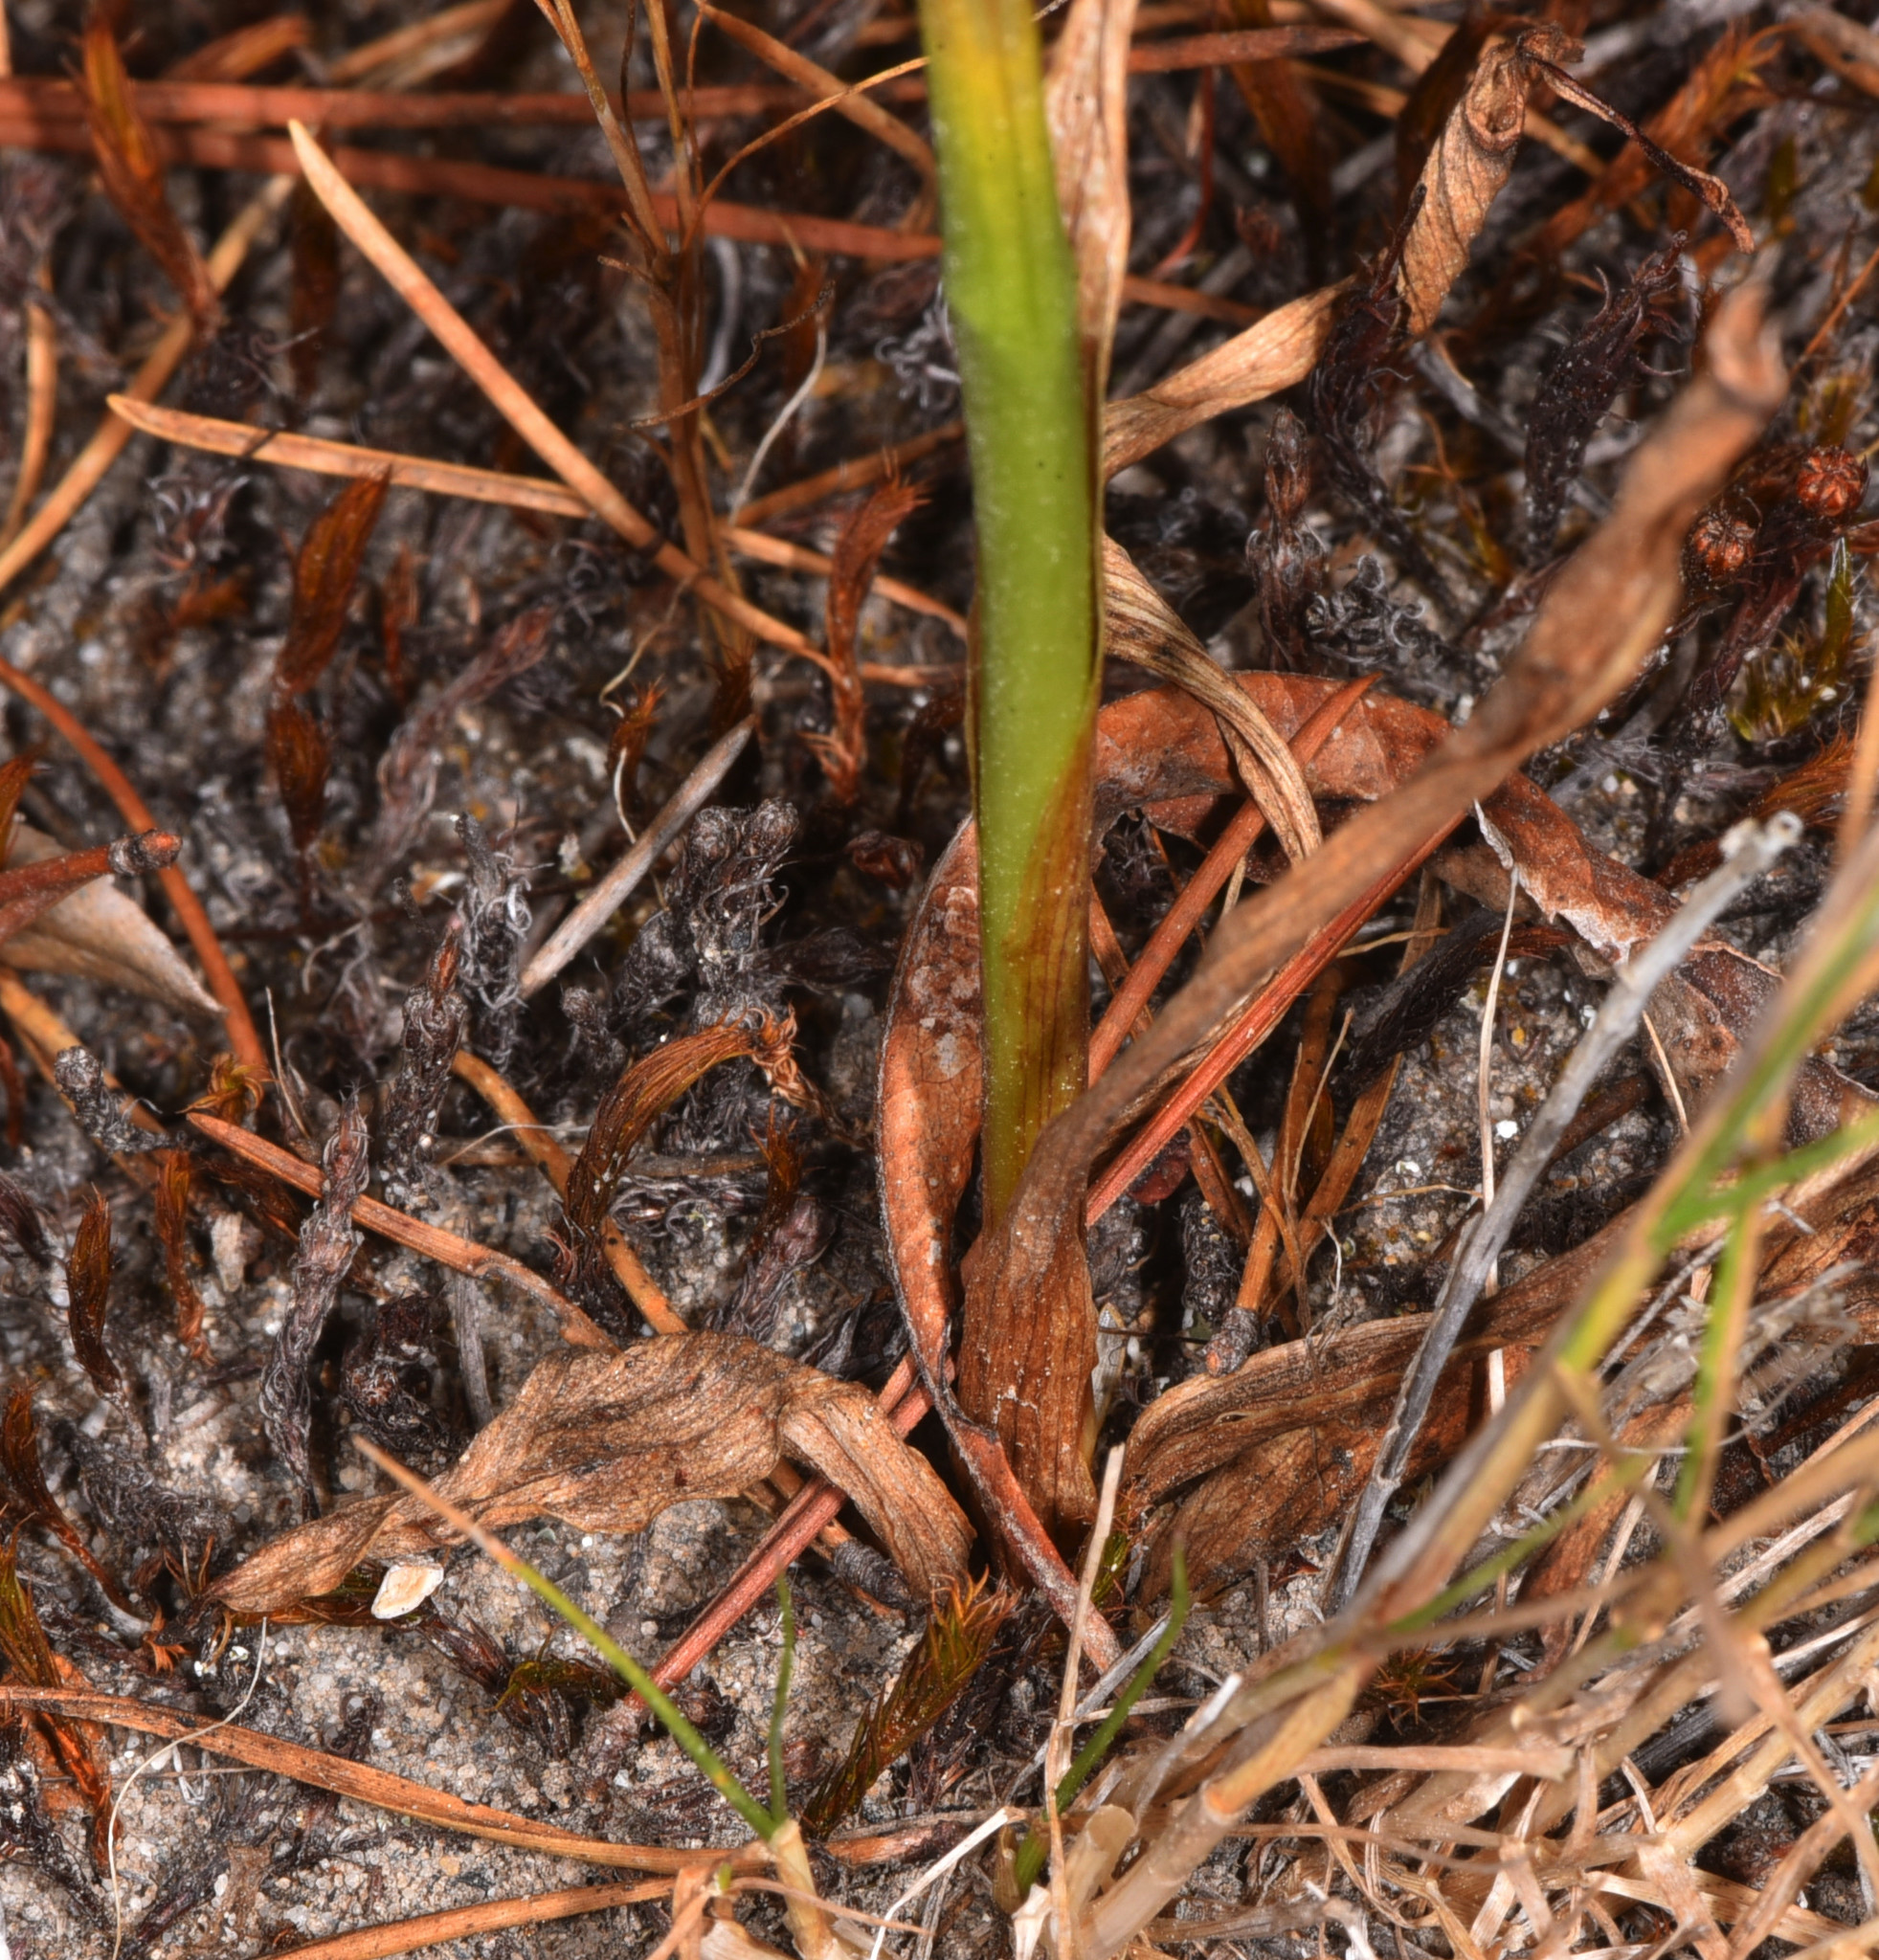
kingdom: Plantae
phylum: Tracheophyta
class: Liliopsida
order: Asparagales
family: Orchidaceae
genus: Spiranthes
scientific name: Spiranthes romanzoffiana
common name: Irish lady's-tresses
